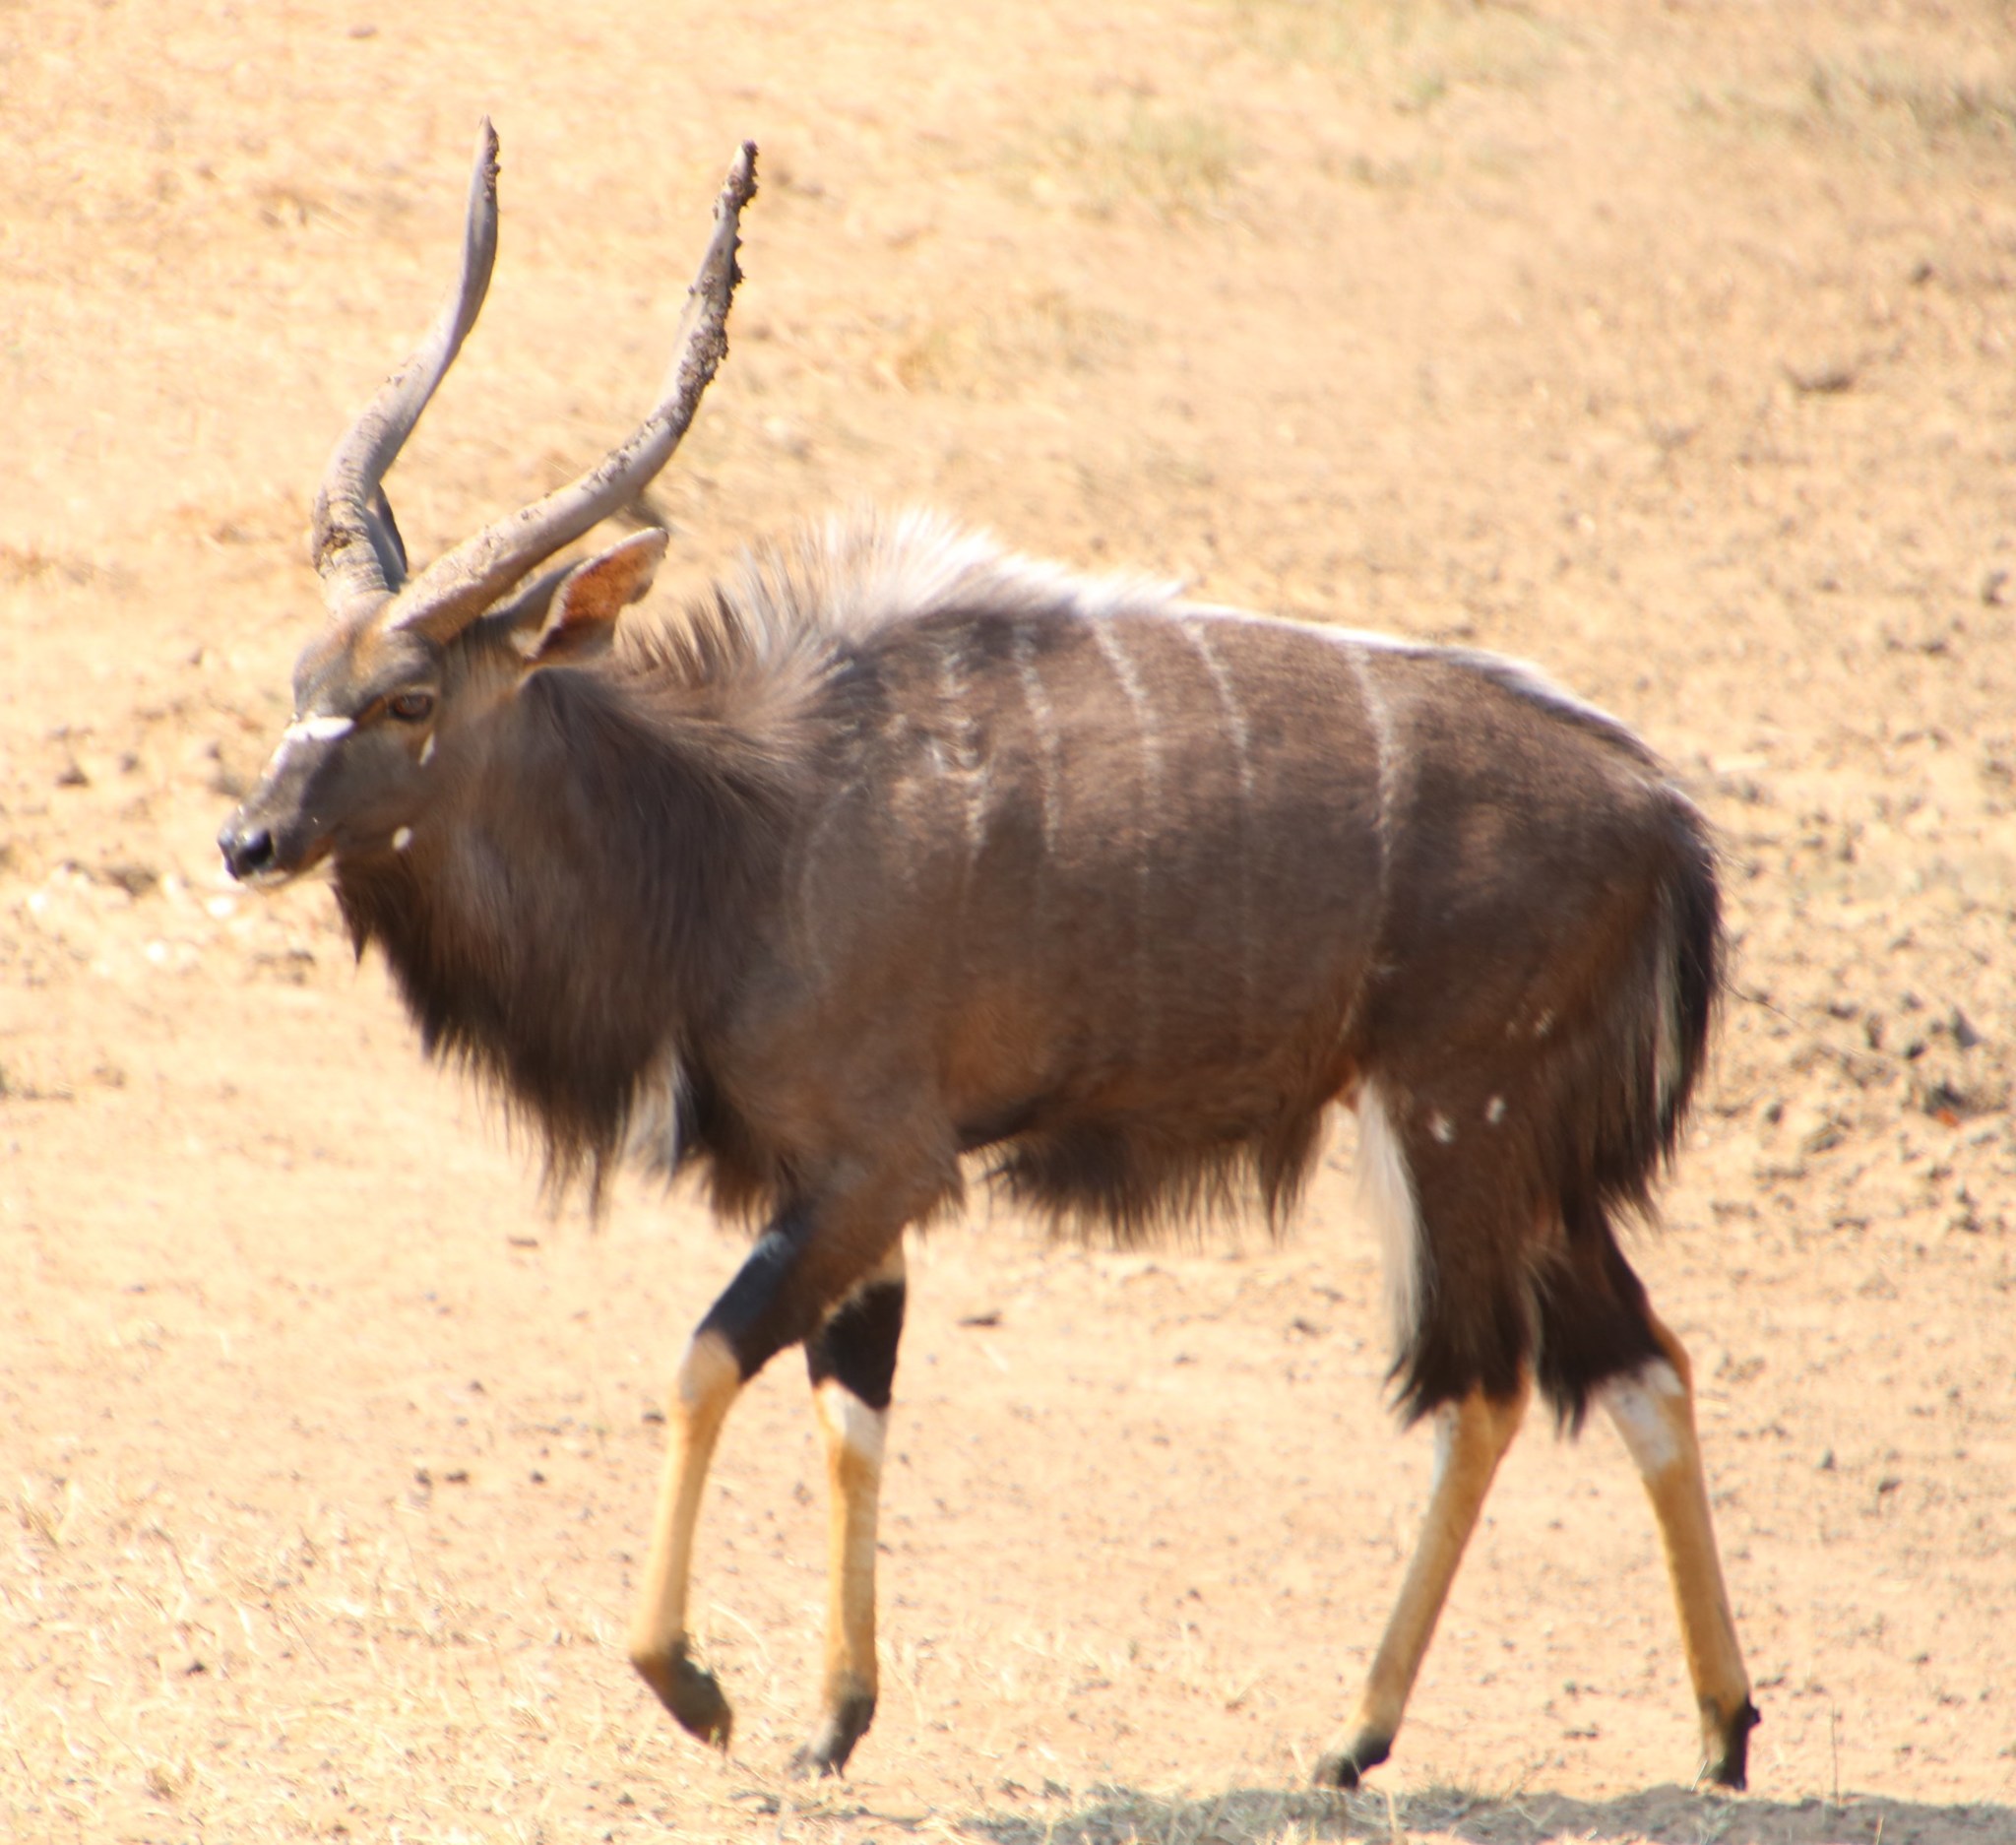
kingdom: Animalia
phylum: Chordata
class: Mammalia
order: Artiodactyla
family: Bovidae
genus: Tragelaphus
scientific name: Tragelaphus angasii
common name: Nyala
